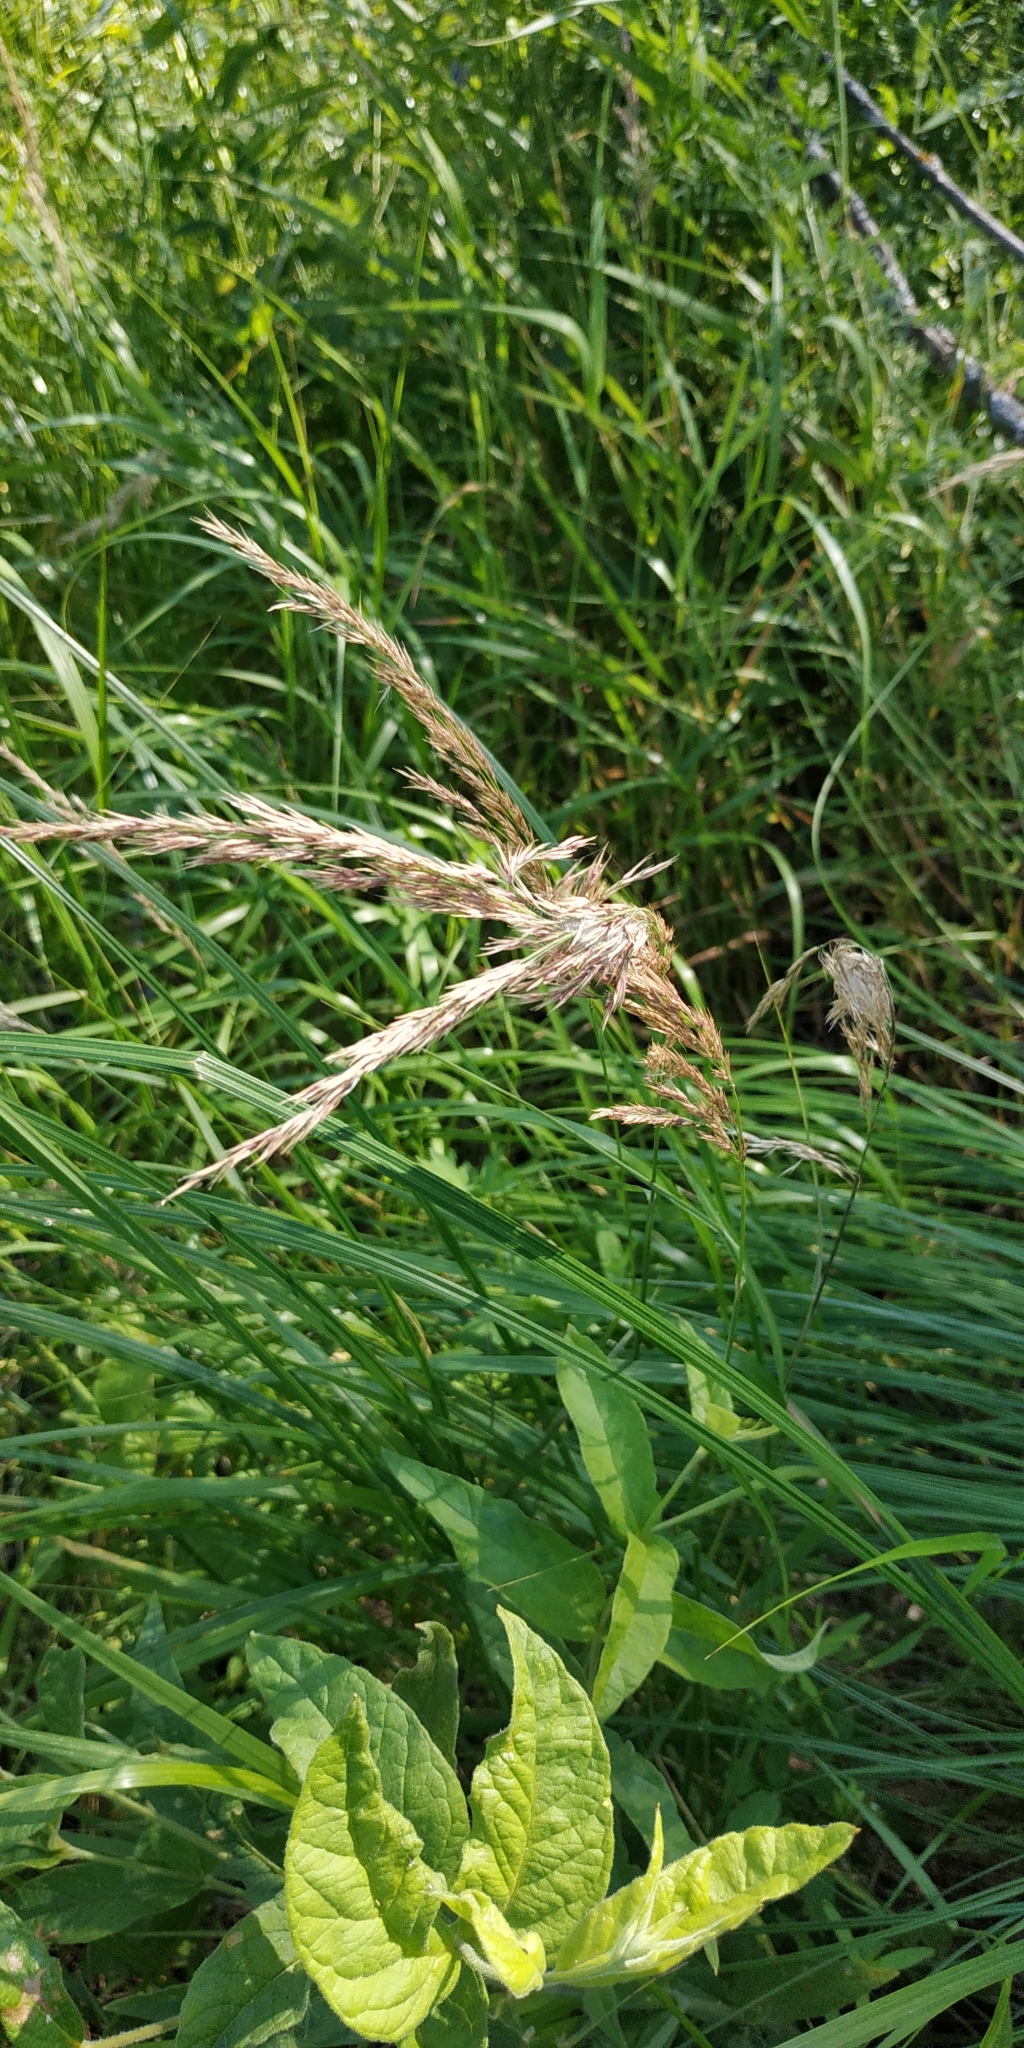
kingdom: Plantae
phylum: Tracheophyta
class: Liliopsida
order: Poales
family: Poaceae
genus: Calamagrostis
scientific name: Calamagrostis purpurea
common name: Scandinavian small-reed
